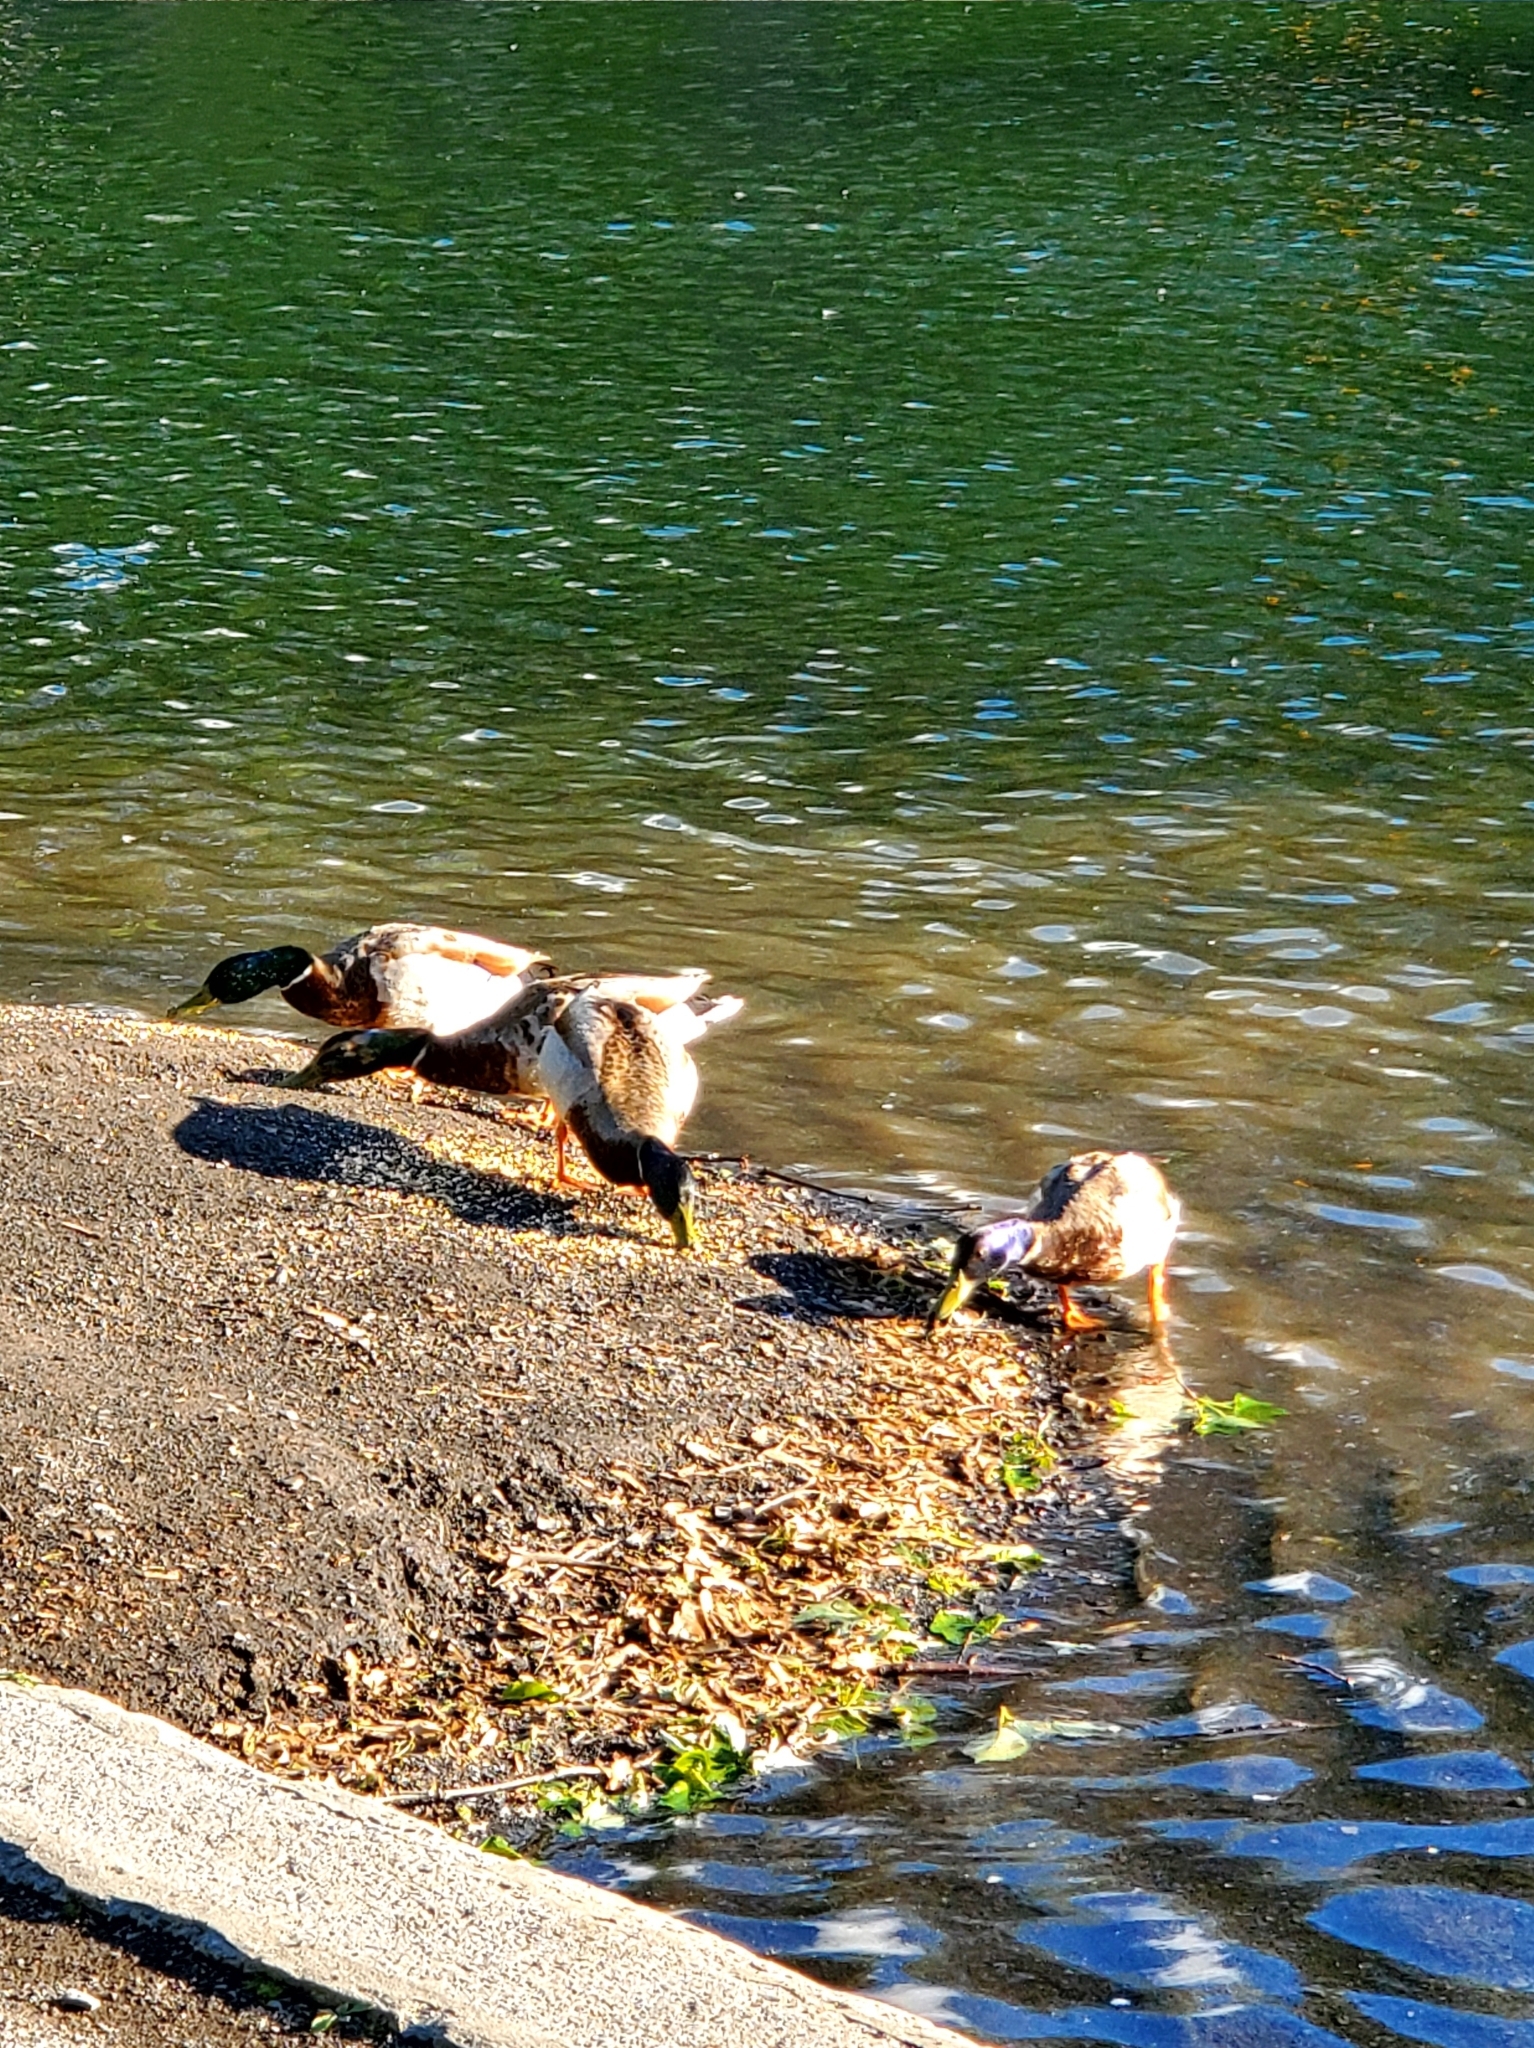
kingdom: Animalia
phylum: Chordata
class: Aves
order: Anseriformes
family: Anatidae
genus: Anas
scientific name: Anas platyrhynchos
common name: Mallard
